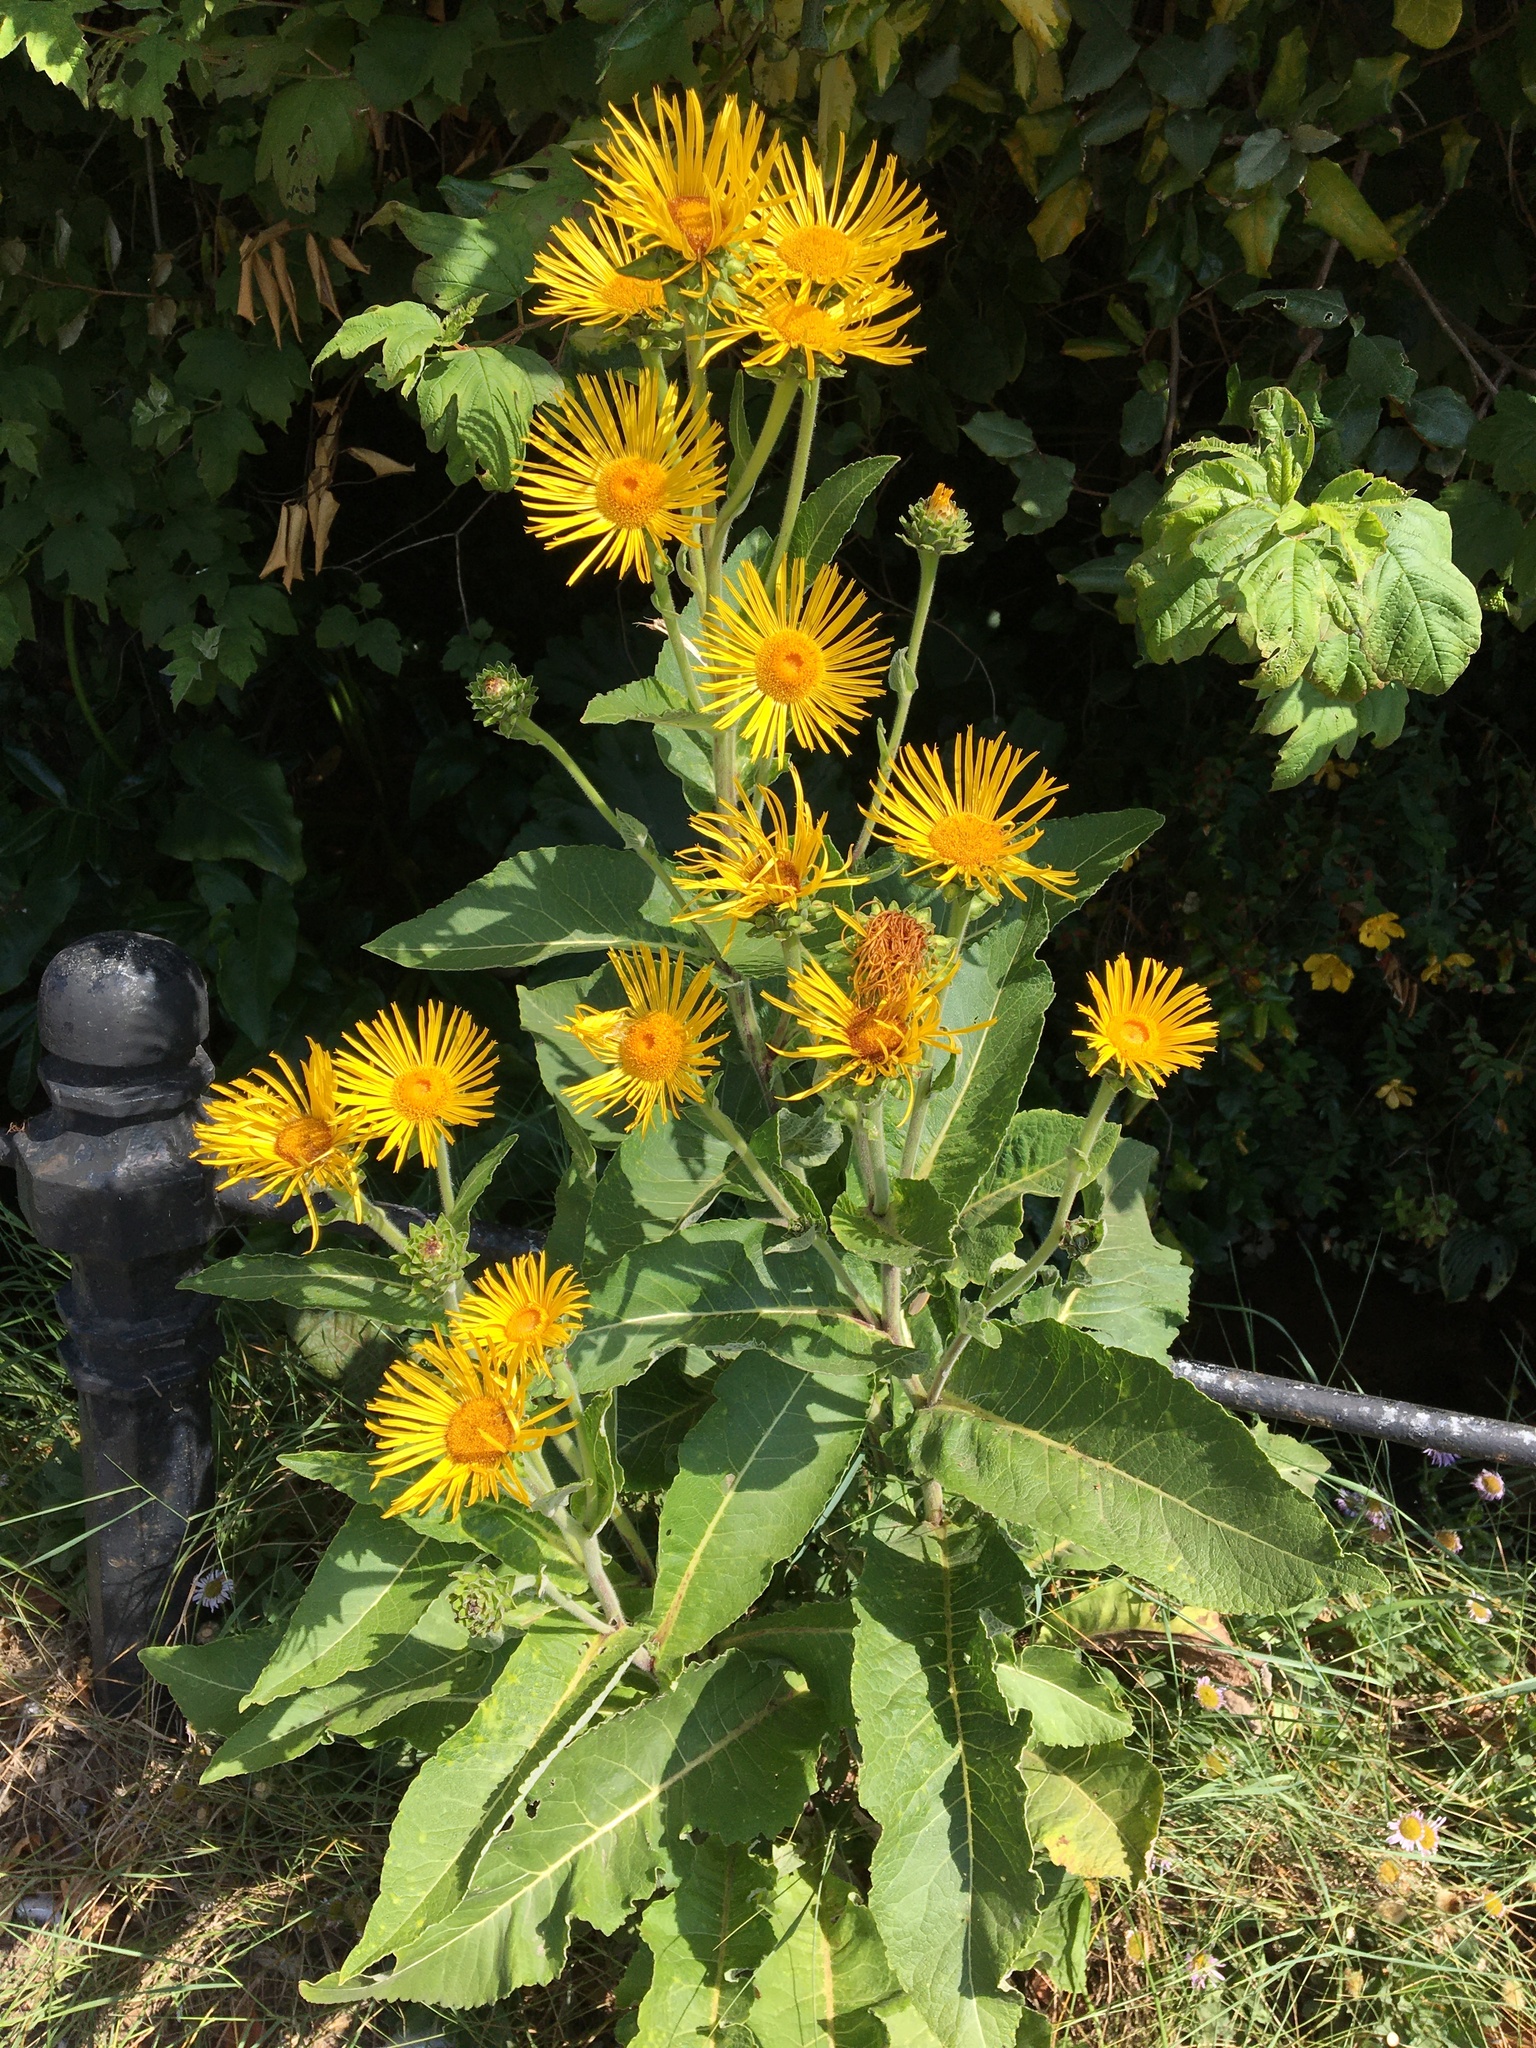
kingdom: Plantae
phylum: Tracheophyta
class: Magnoliopsida
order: Asterales
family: Asteraceae
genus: Inula
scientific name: Inula helenium
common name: Elecampane
